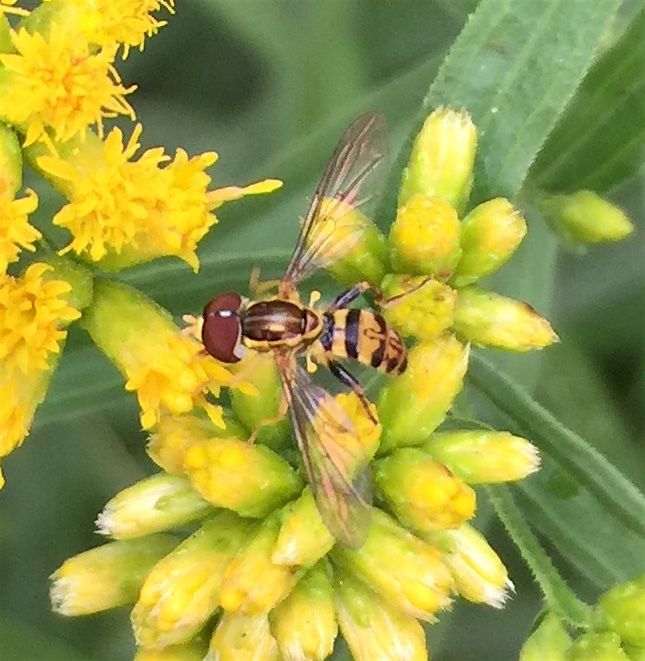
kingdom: Animalia
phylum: Arthropoda
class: Insecta
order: Diptera
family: Syrphidae
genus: Toxomerus
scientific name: Toxomerus geminatus
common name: Eastern calligrapher
